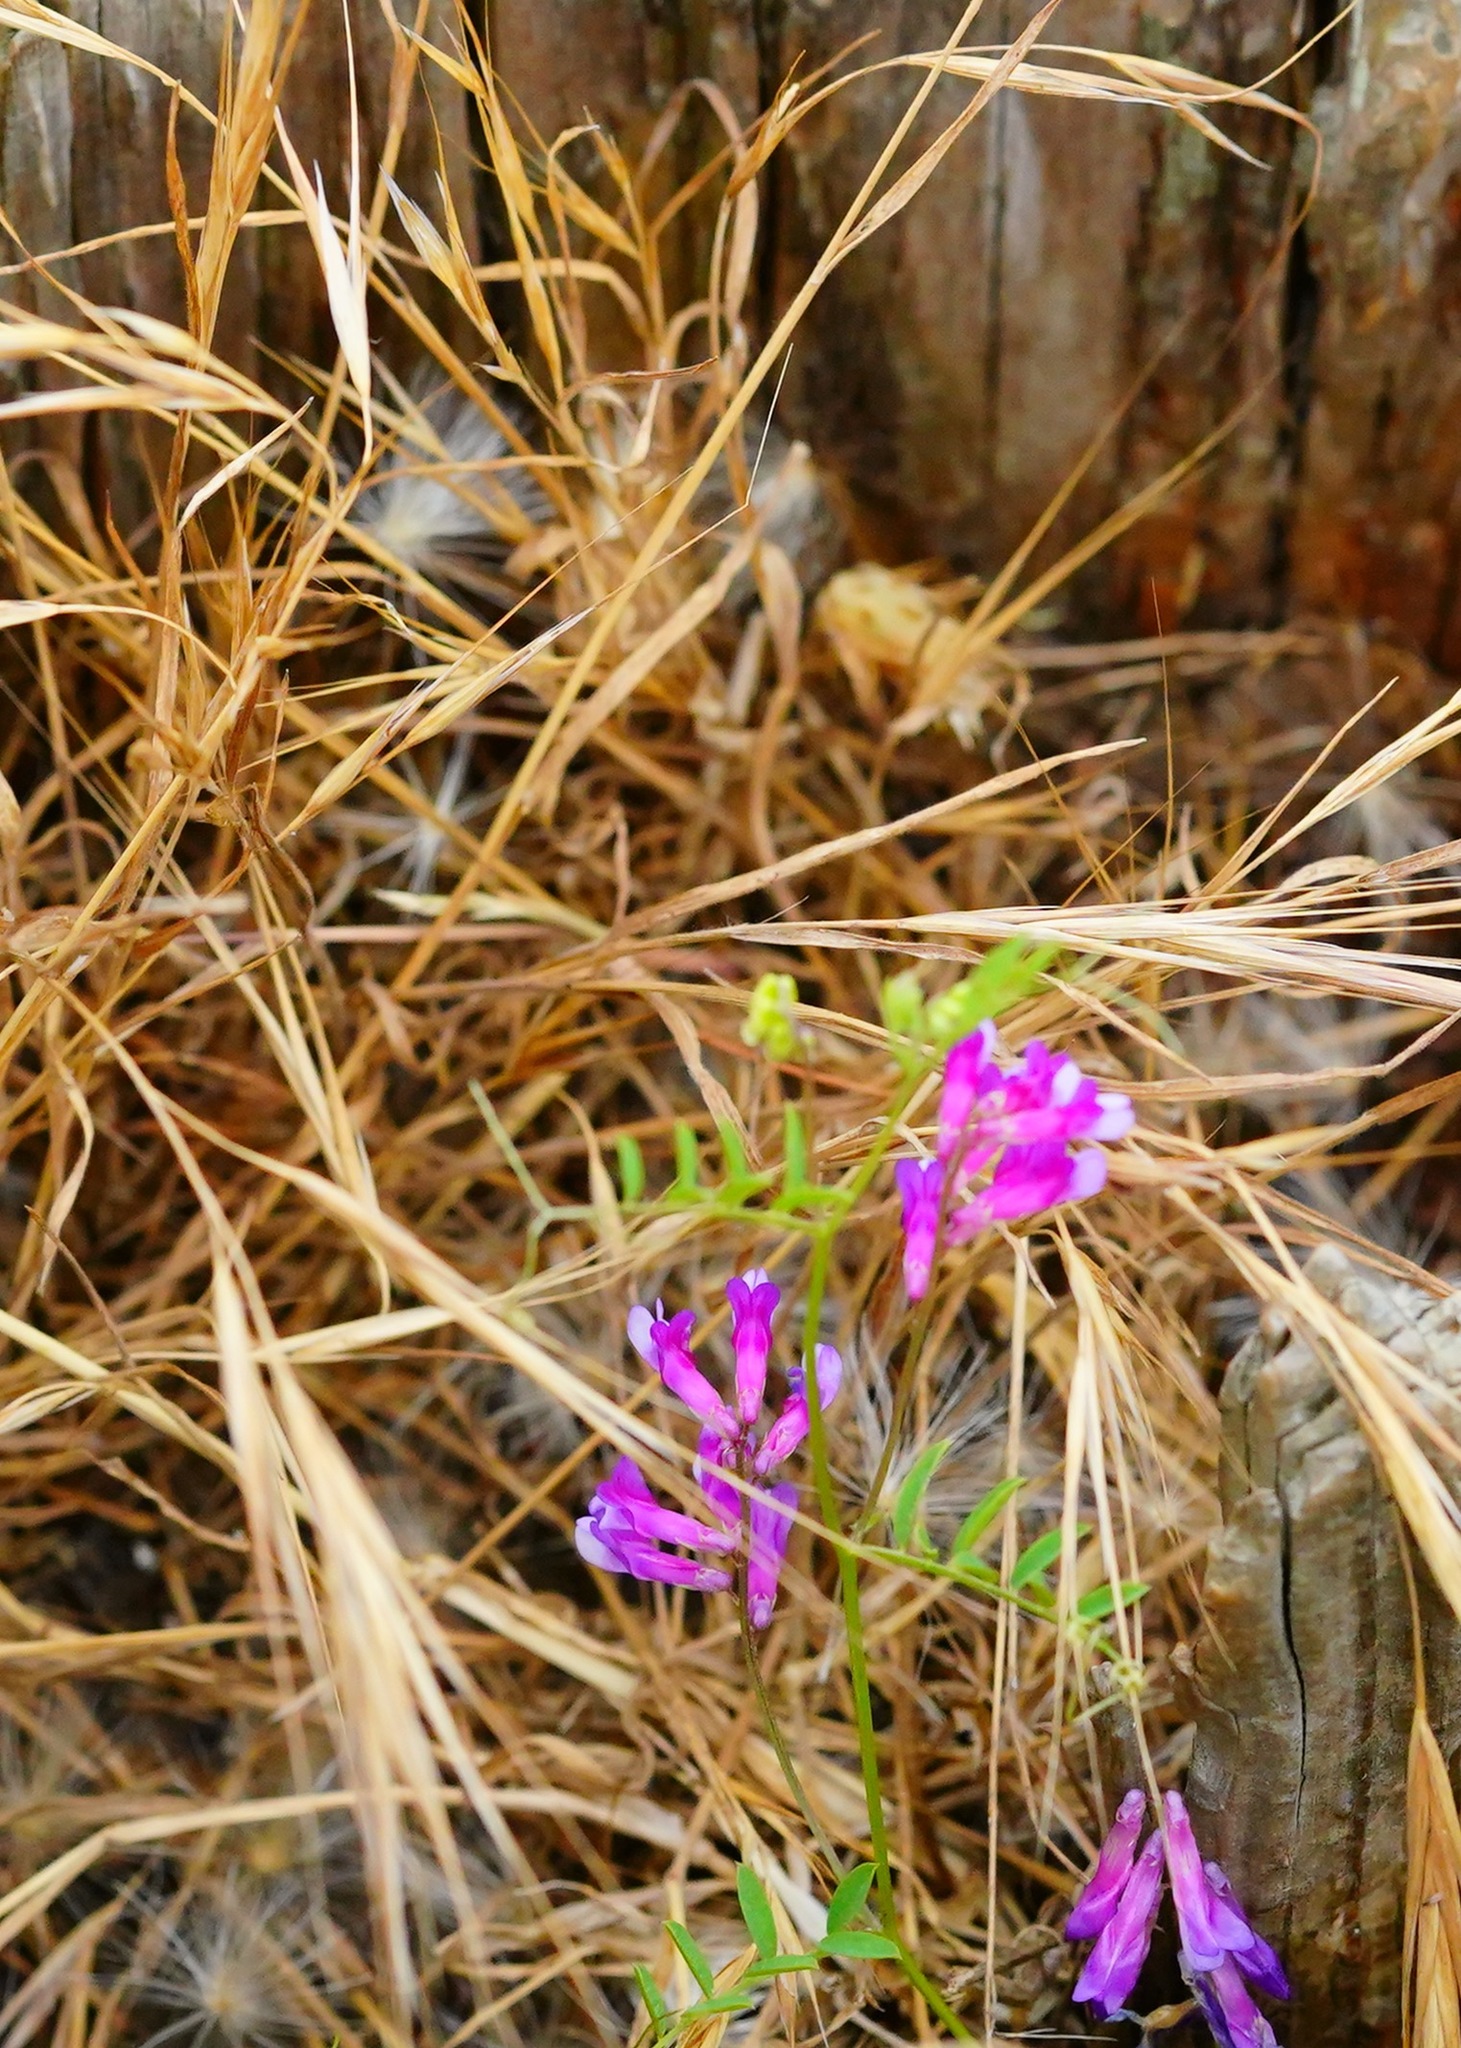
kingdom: Plantae
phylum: Tracheophyta
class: Magnoliopsida
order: Fabales
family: Fabaceae
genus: Vicia
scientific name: Vicia villosa
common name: Fodder vetch
